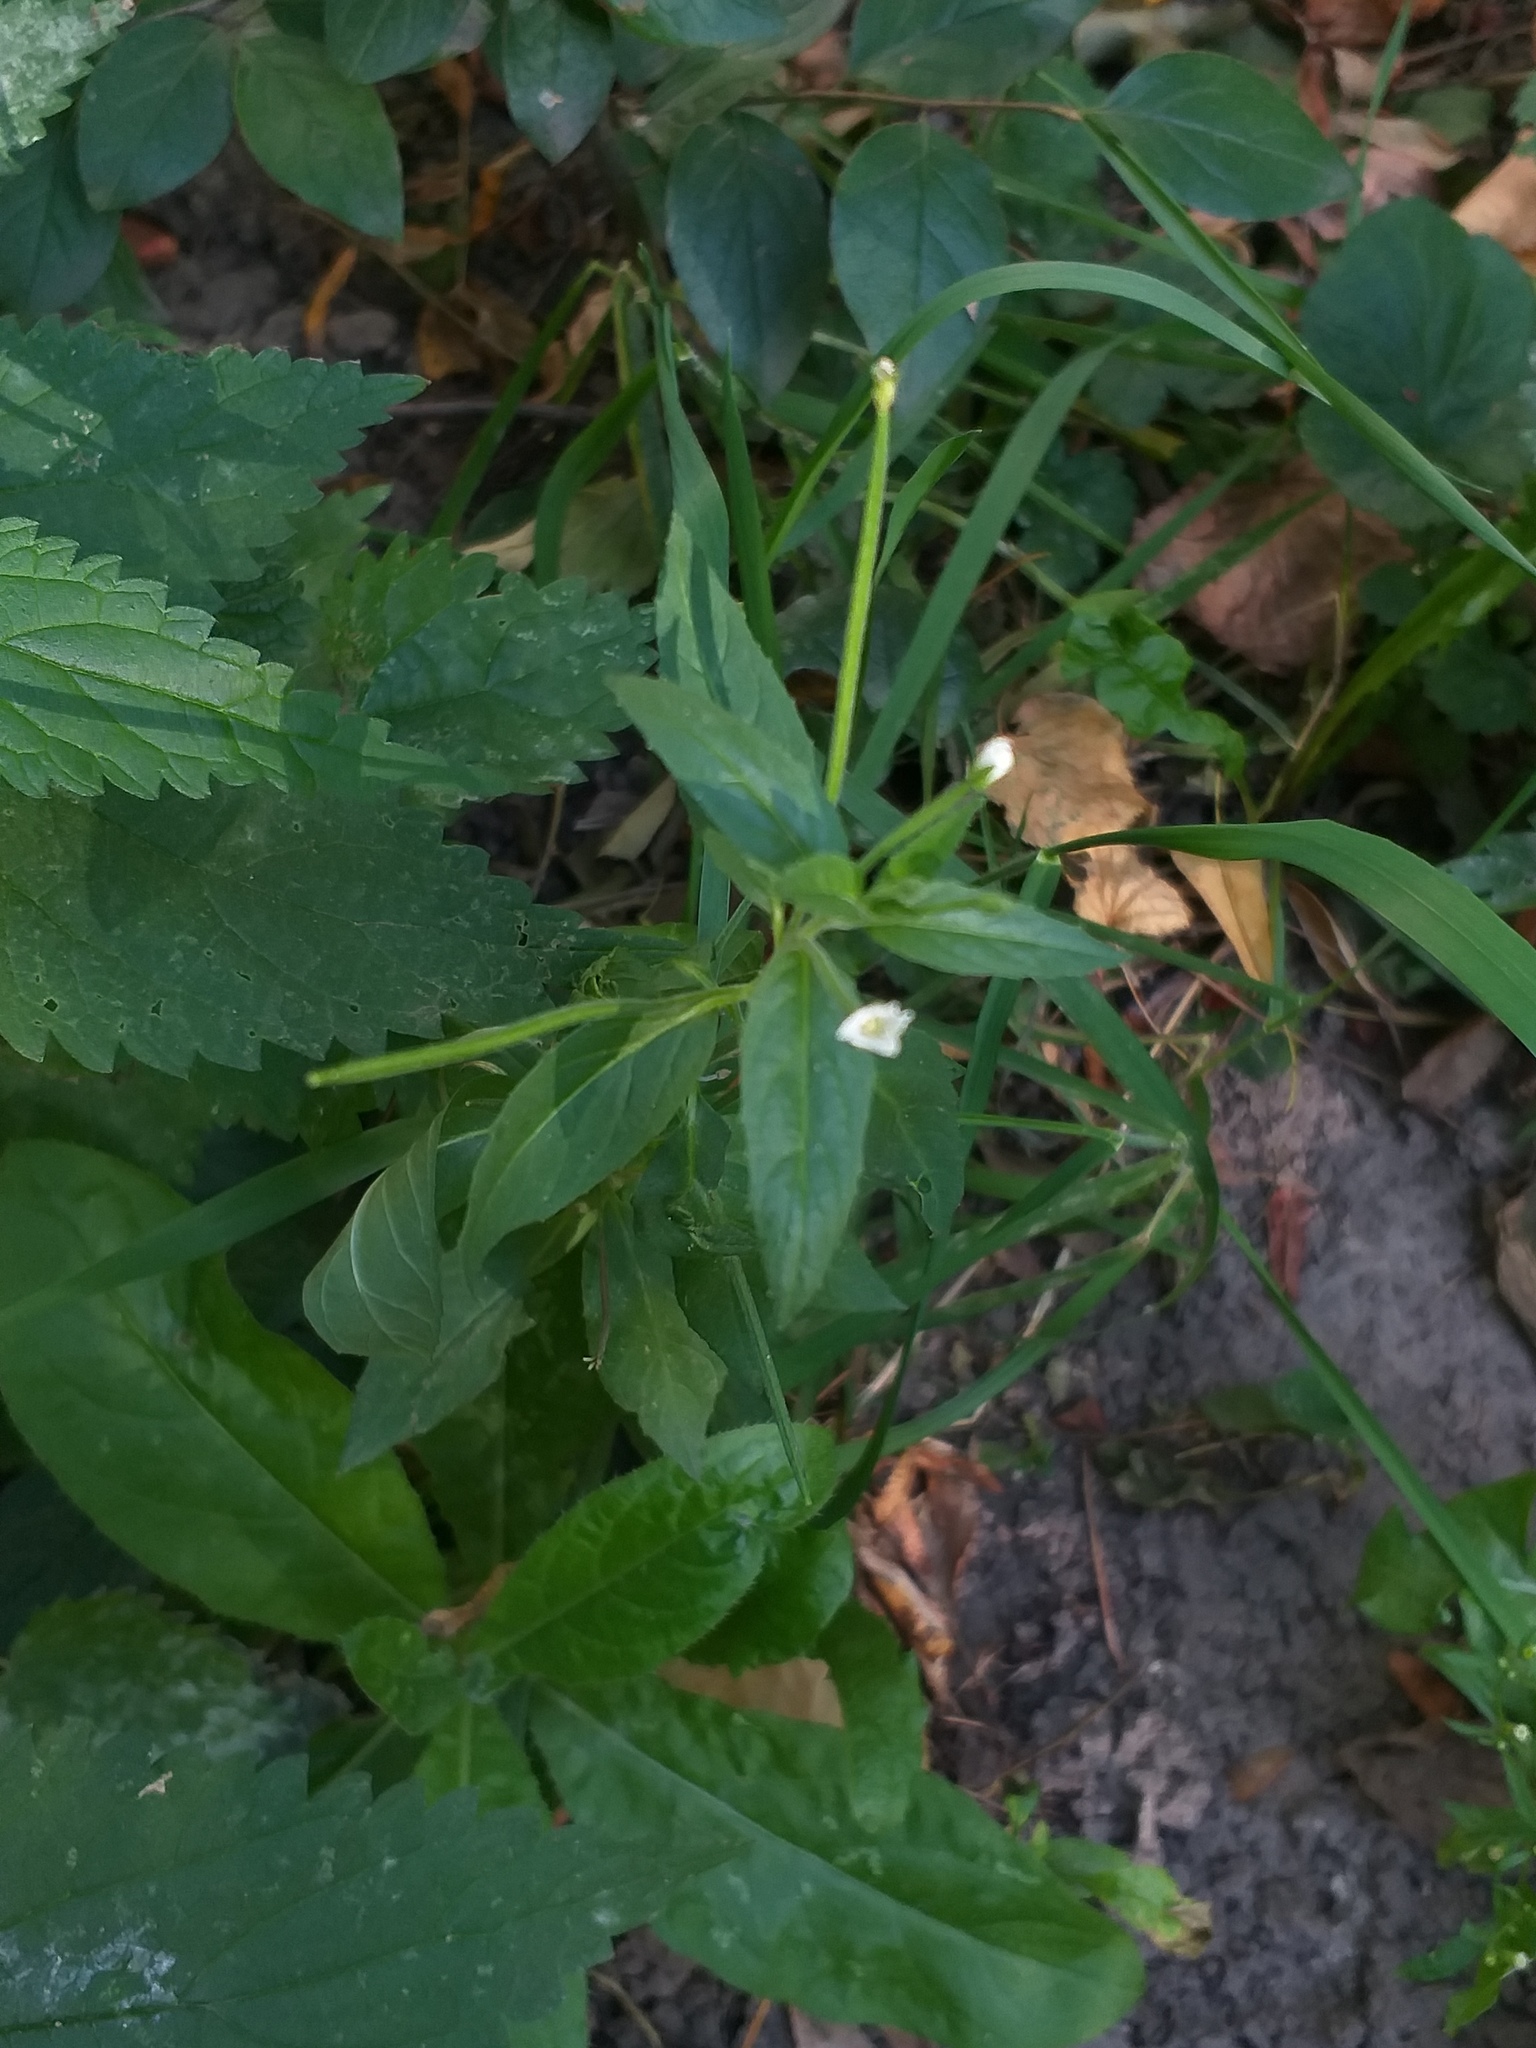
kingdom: Plantae
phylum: Tracheophyta
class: Magnoliopsida
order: Myrtales
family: Onagraceae
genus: Epilobium
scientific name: Epilobium pseudorubescens
